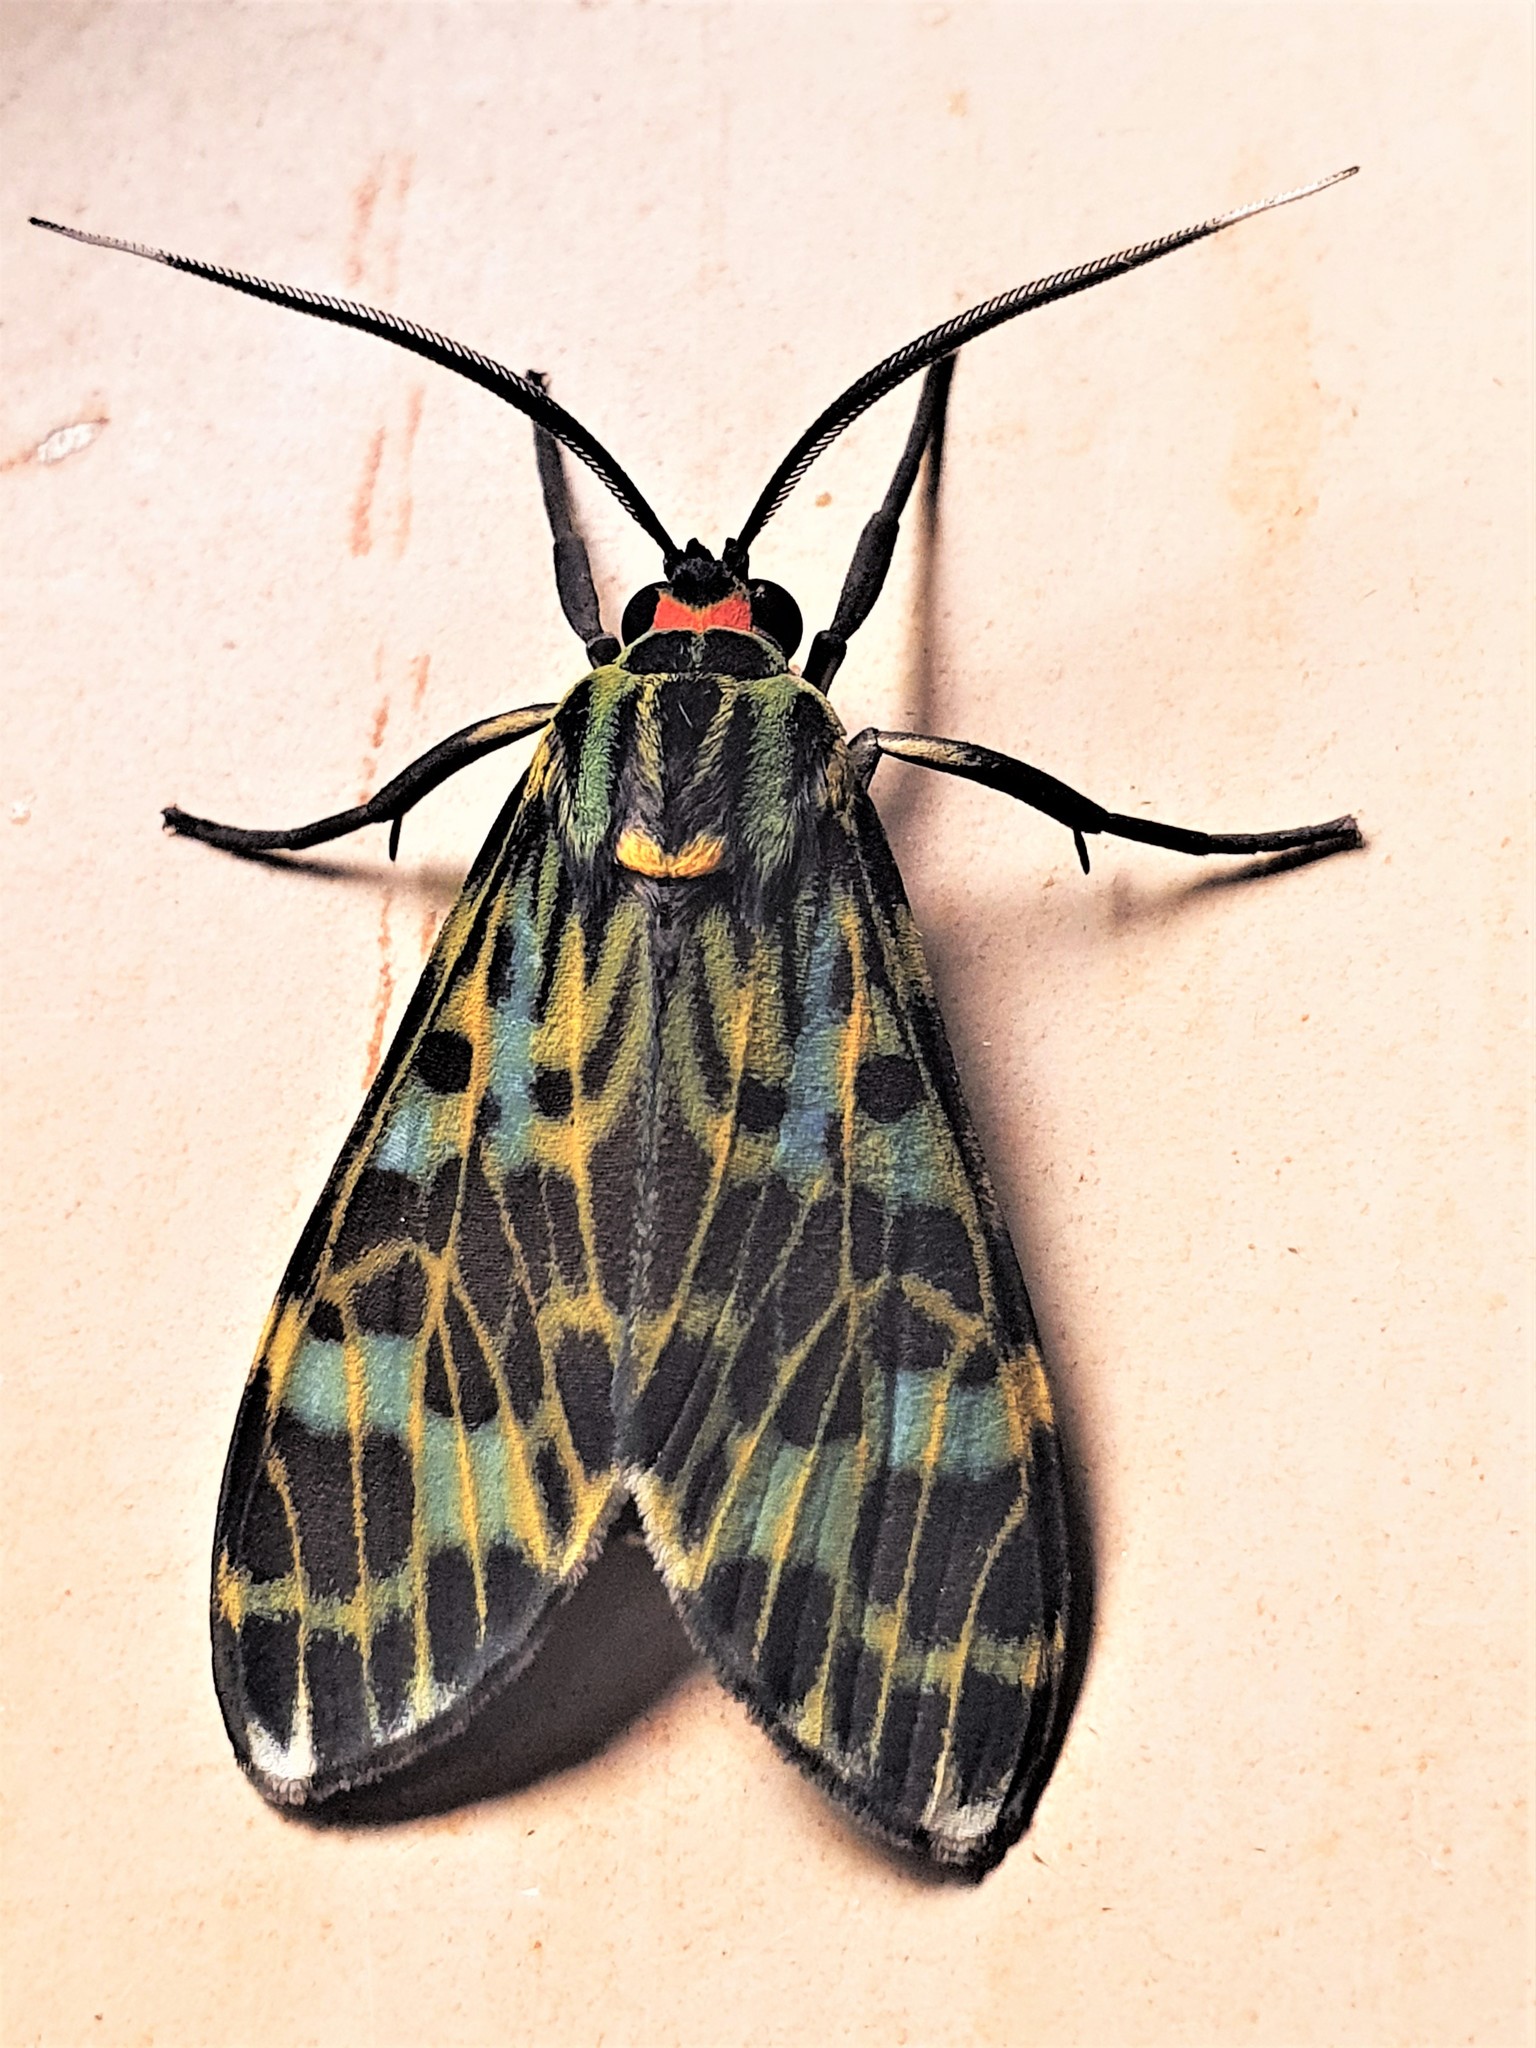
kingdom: Animalia
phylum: Arthropoda
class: Insecta
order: Lepidoptera
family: Erebidae
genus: Heliura
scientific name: Heliura marica
